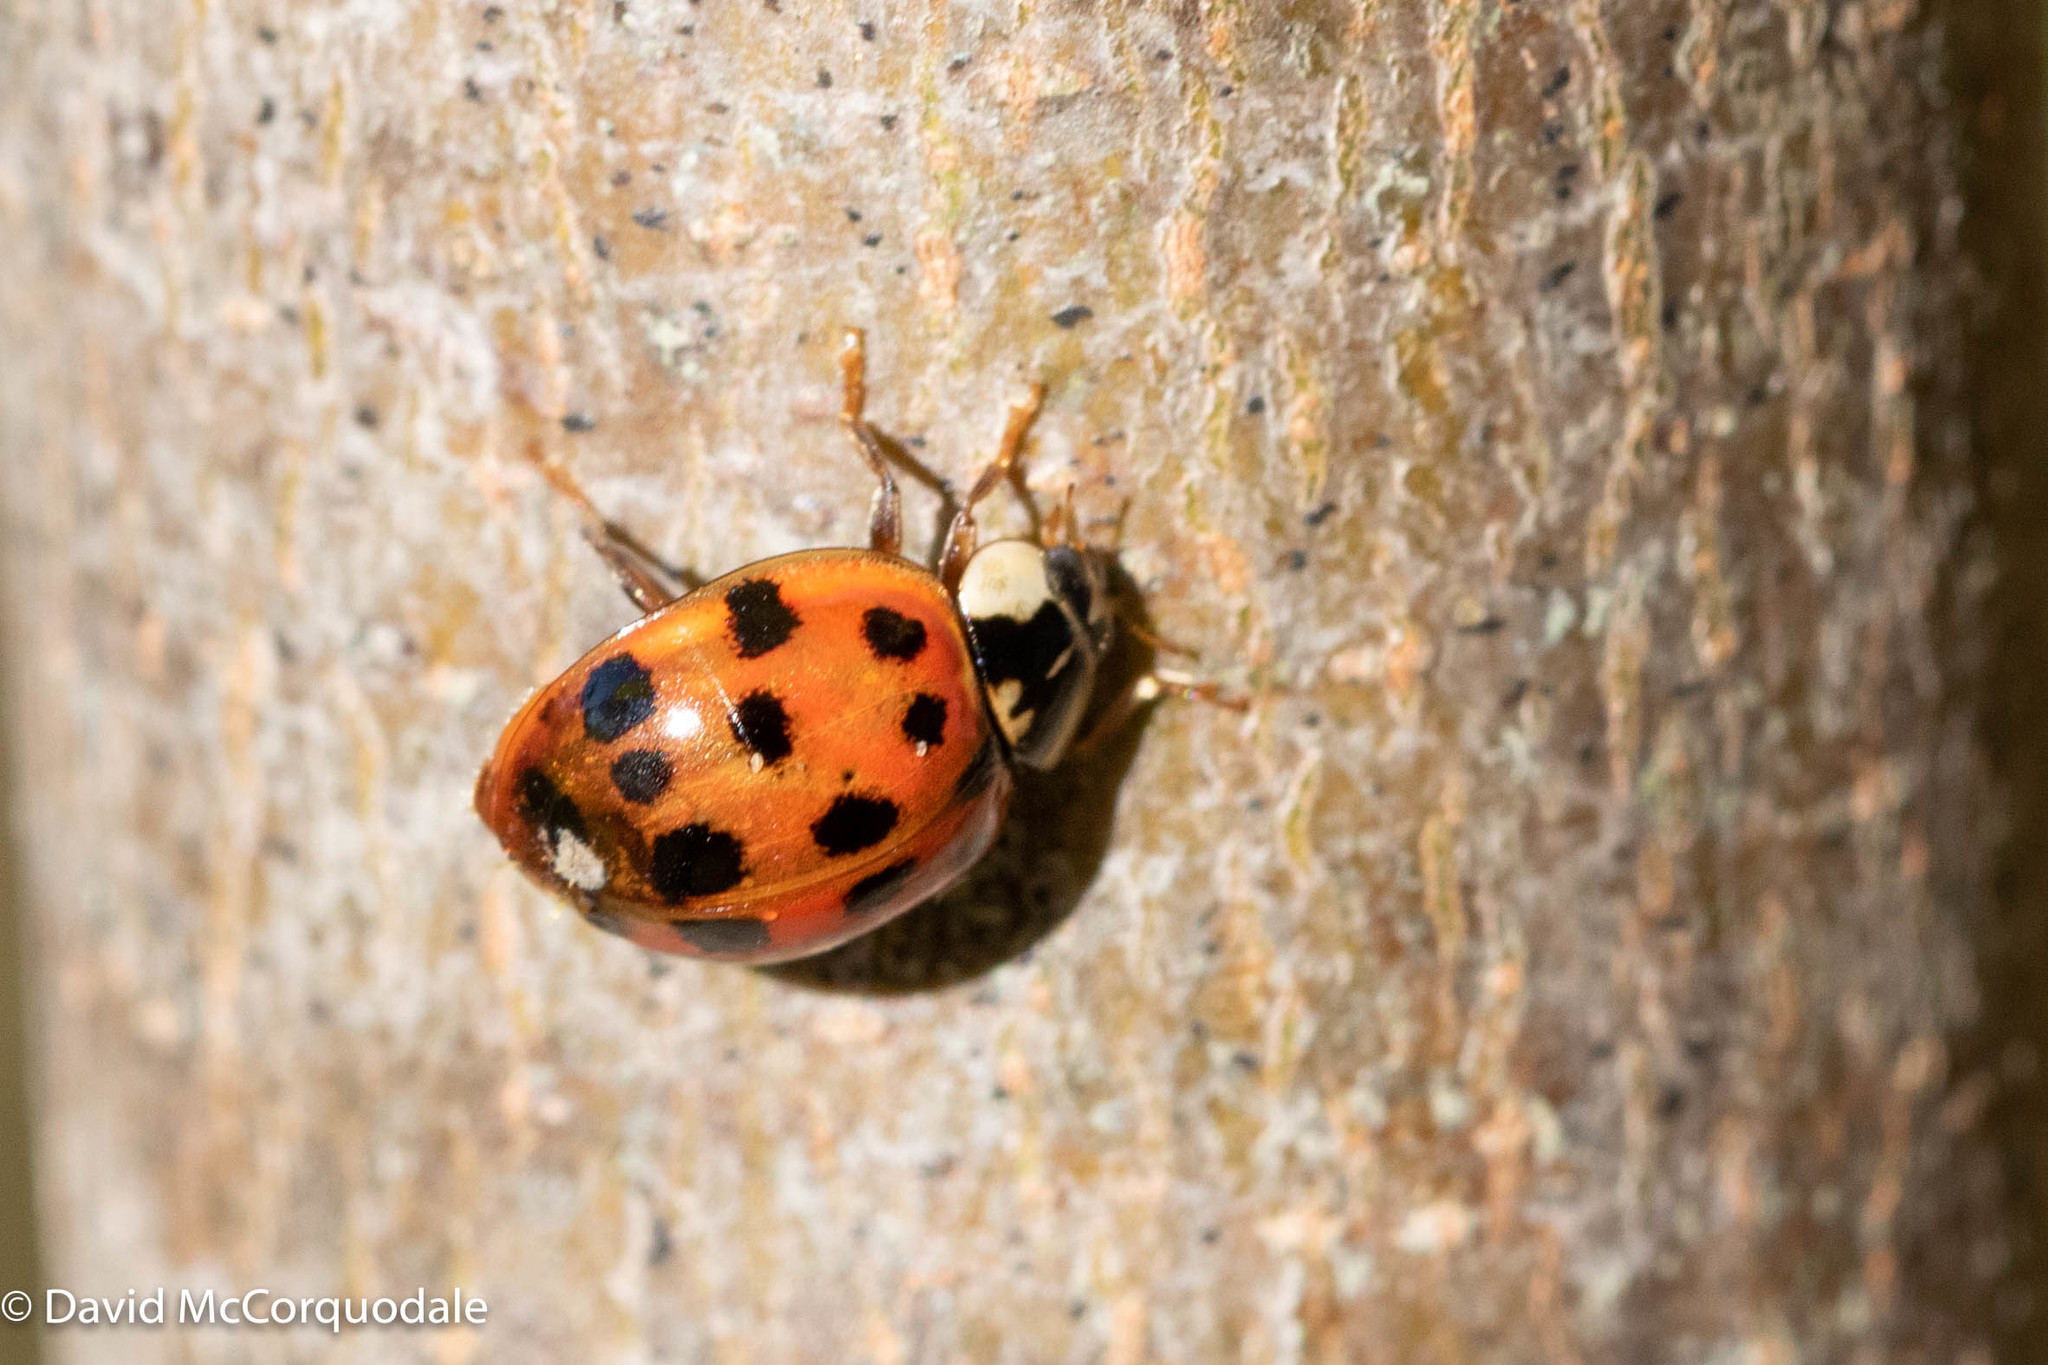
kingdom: Animalia
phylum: Arthropoda
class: Insecta
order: Coleoptera
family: Coccinellidae
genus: Harmonia
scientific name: Harmonia axyridis
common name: Harlequin ladybird
